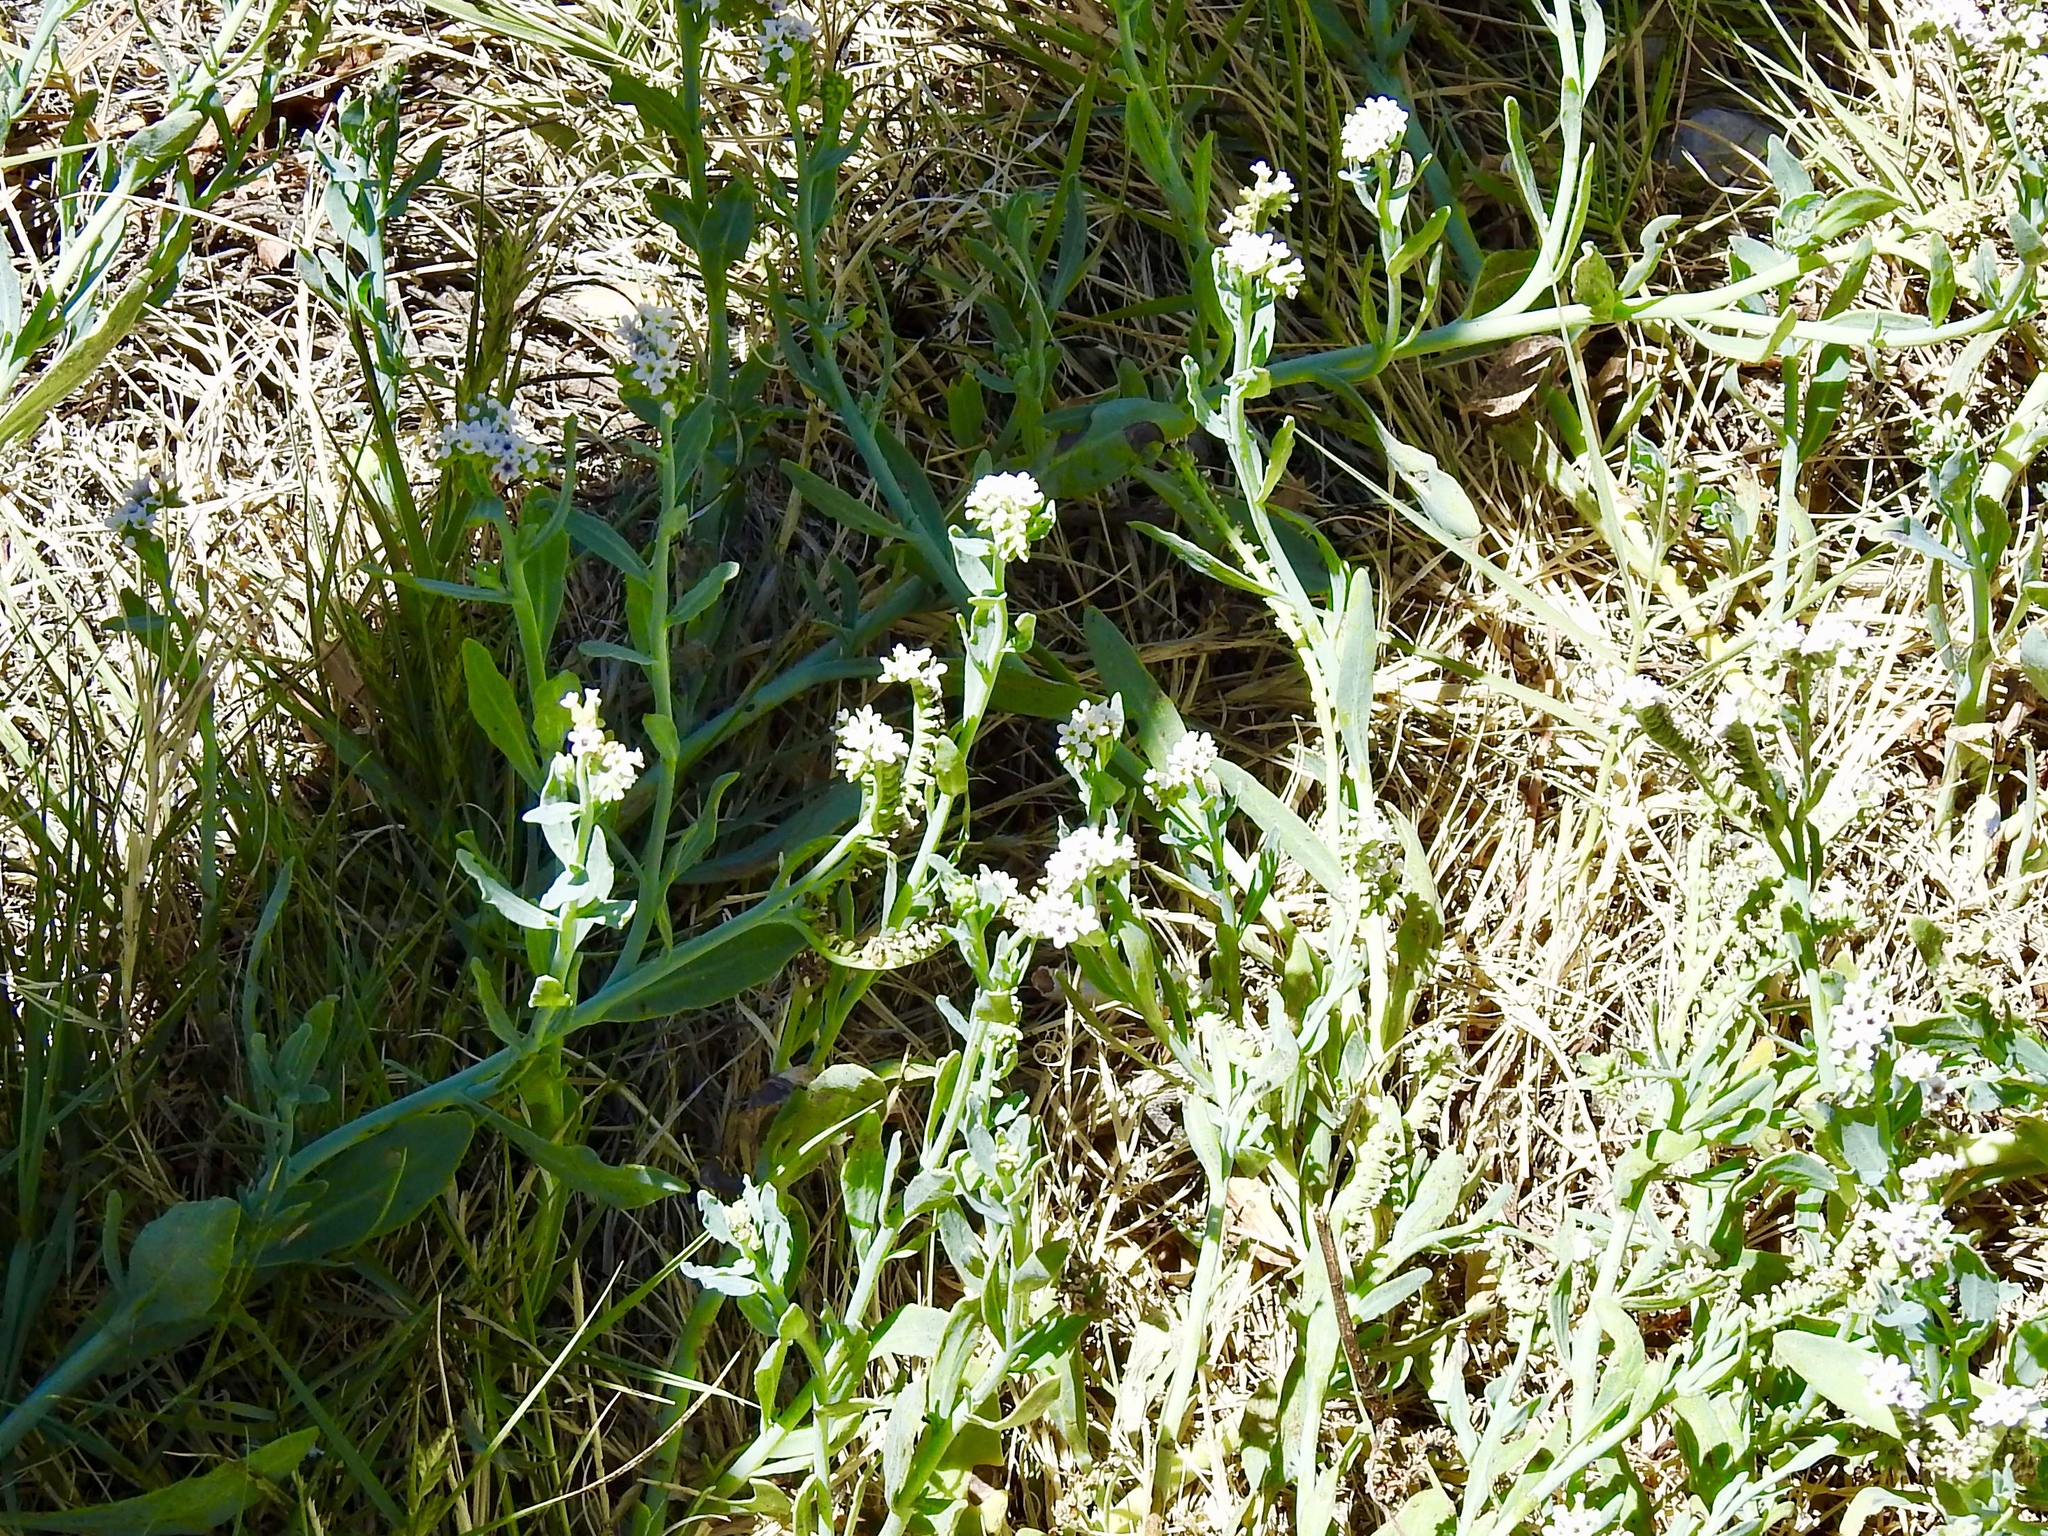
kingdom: Plantae
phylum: Tracheophyta
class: Magnoliopsida
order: Boraginales
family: Heliotropiaceae
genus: Heliotropium
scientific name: Heliotropium curassavicum
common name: Seaside heliotrope
